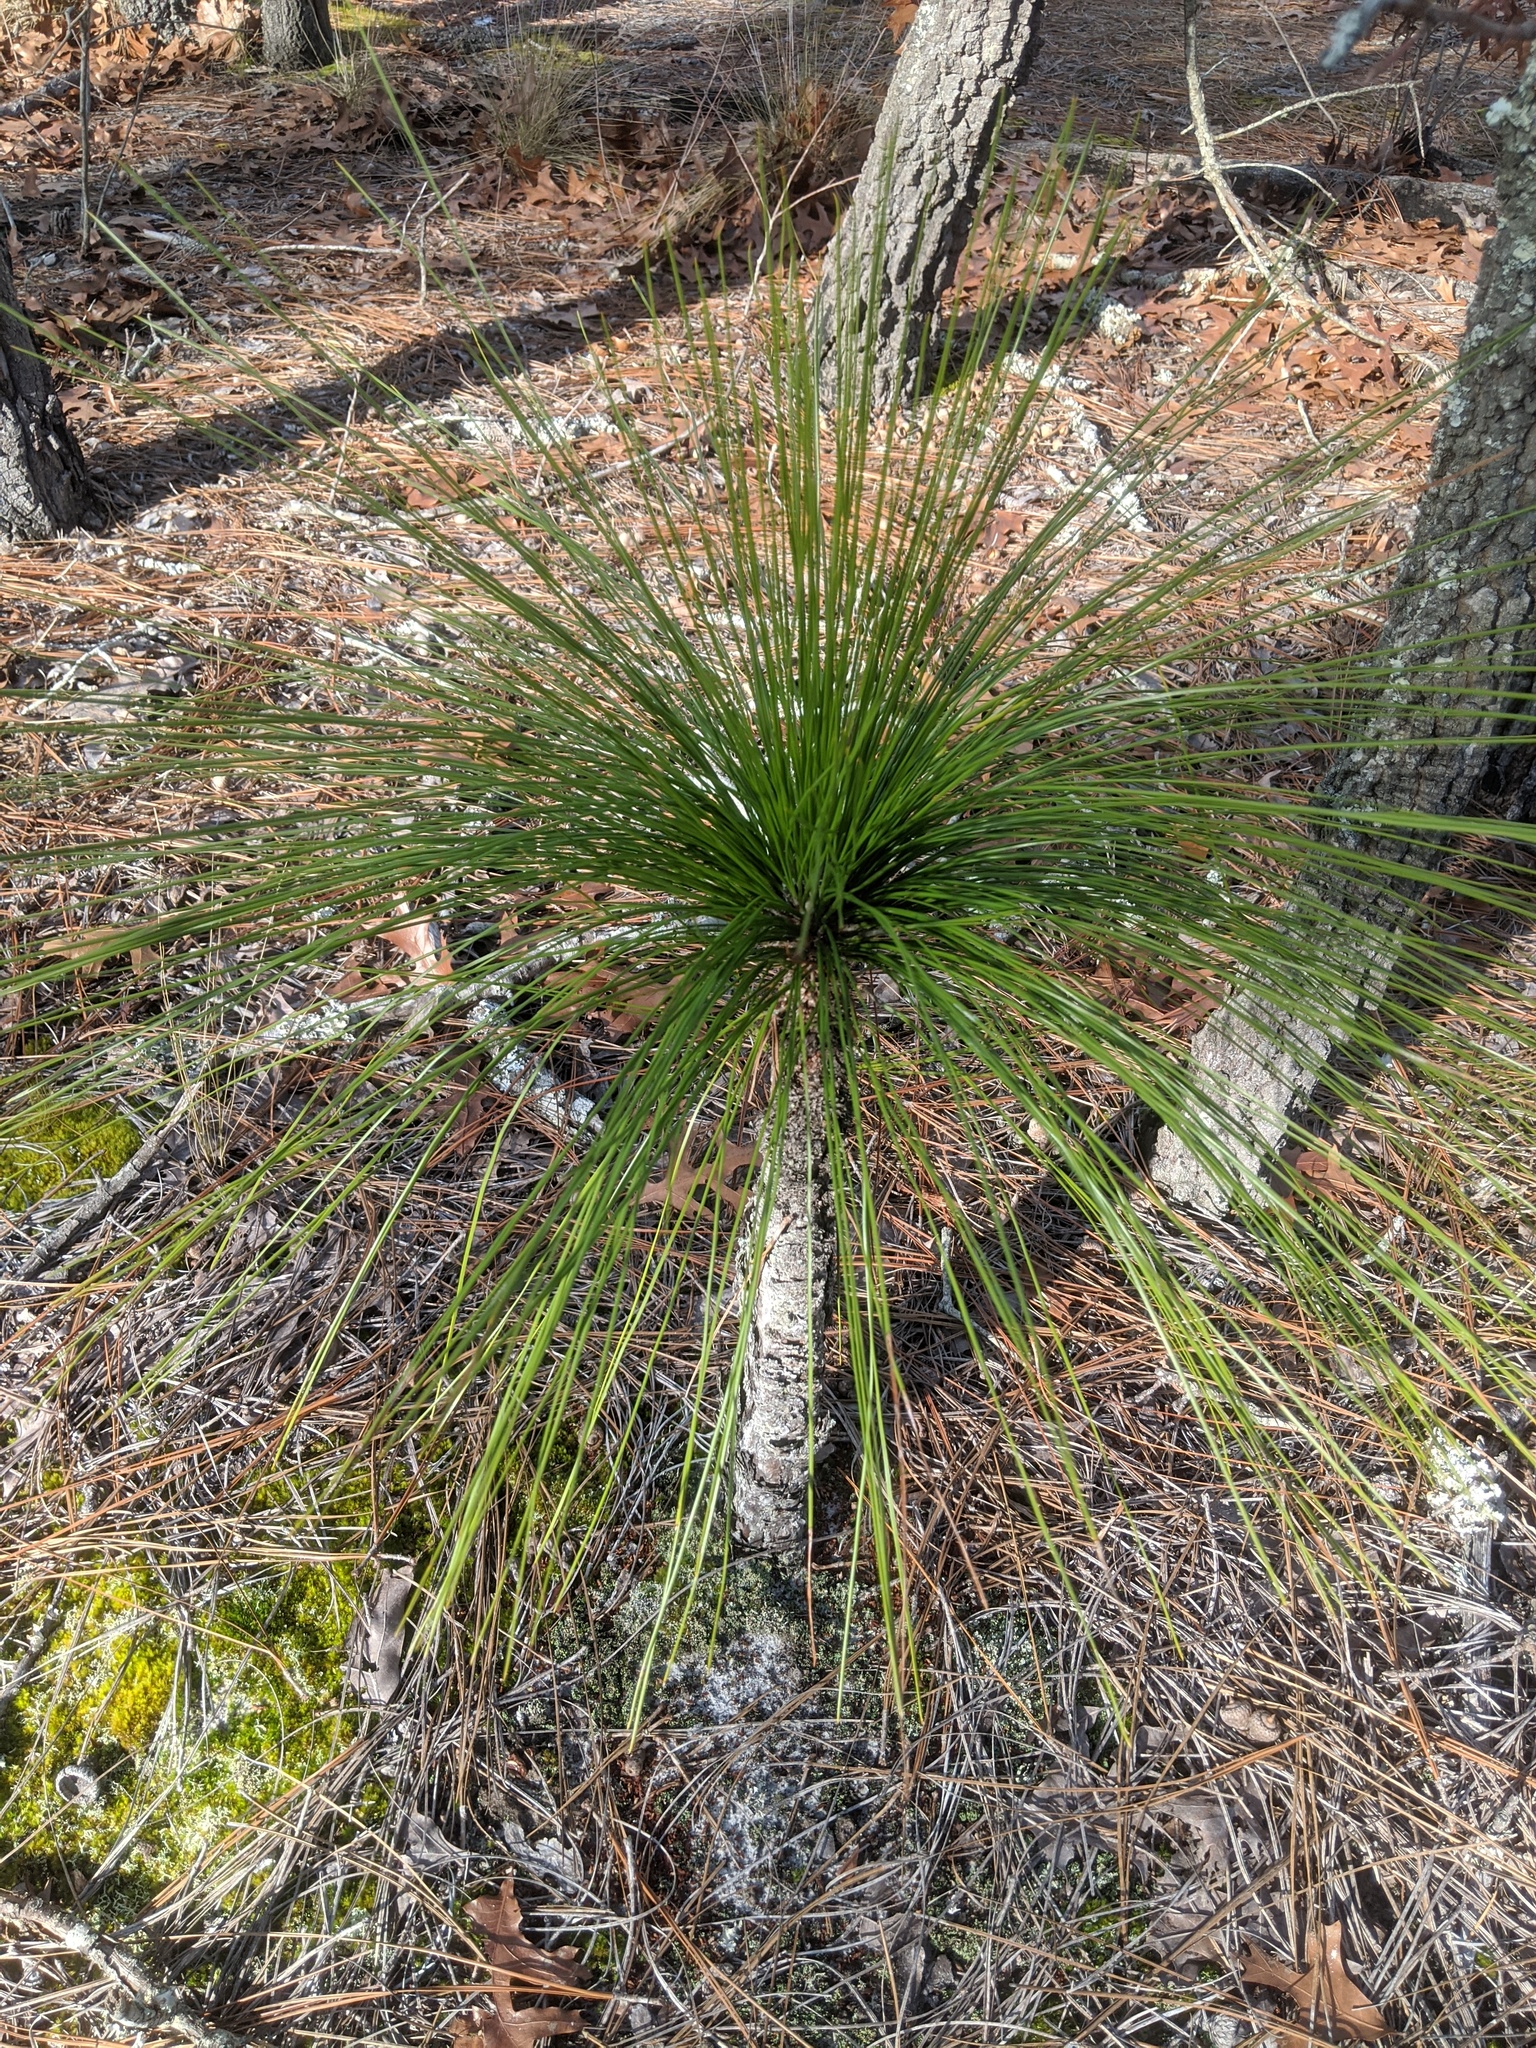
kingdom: Plantae
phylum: Tracheophyta
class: Pinopsida
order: Pinales
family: Pinaceae
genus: Pinus
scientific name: Pinus palustris
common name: Longleaf pine
